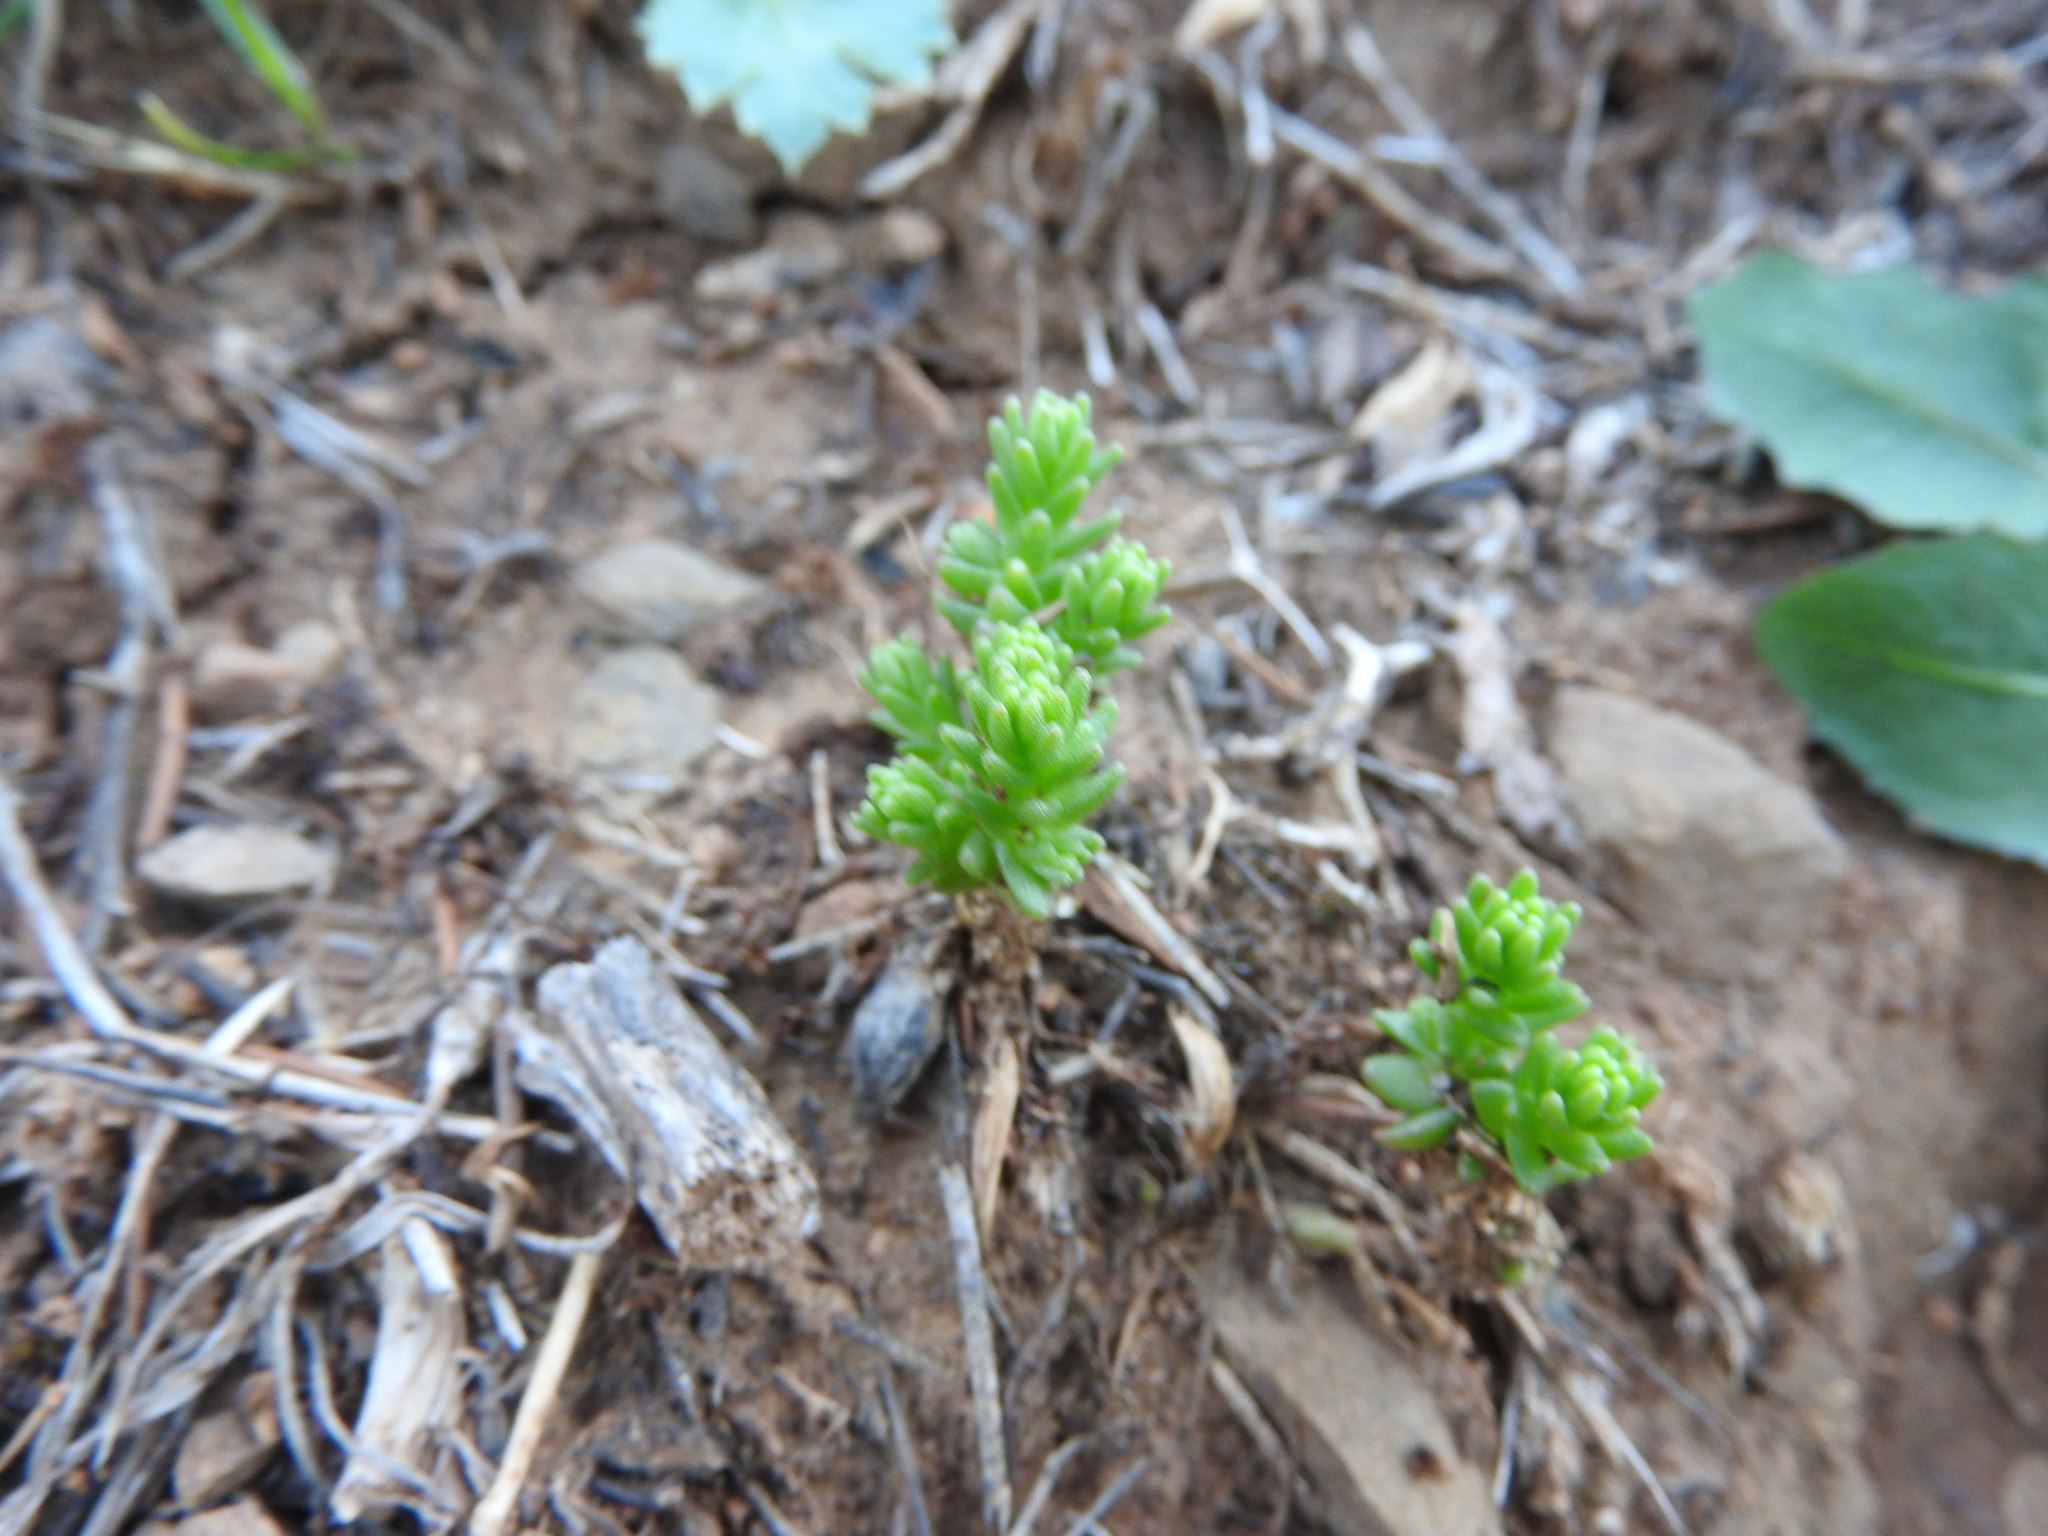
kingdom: Plantae
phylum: Tracheophyta
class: Magnoliopsida
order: Saxifragales
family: Crassulaceae
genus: Sedum
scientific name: Sedum acre
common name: Biting stonecrop
